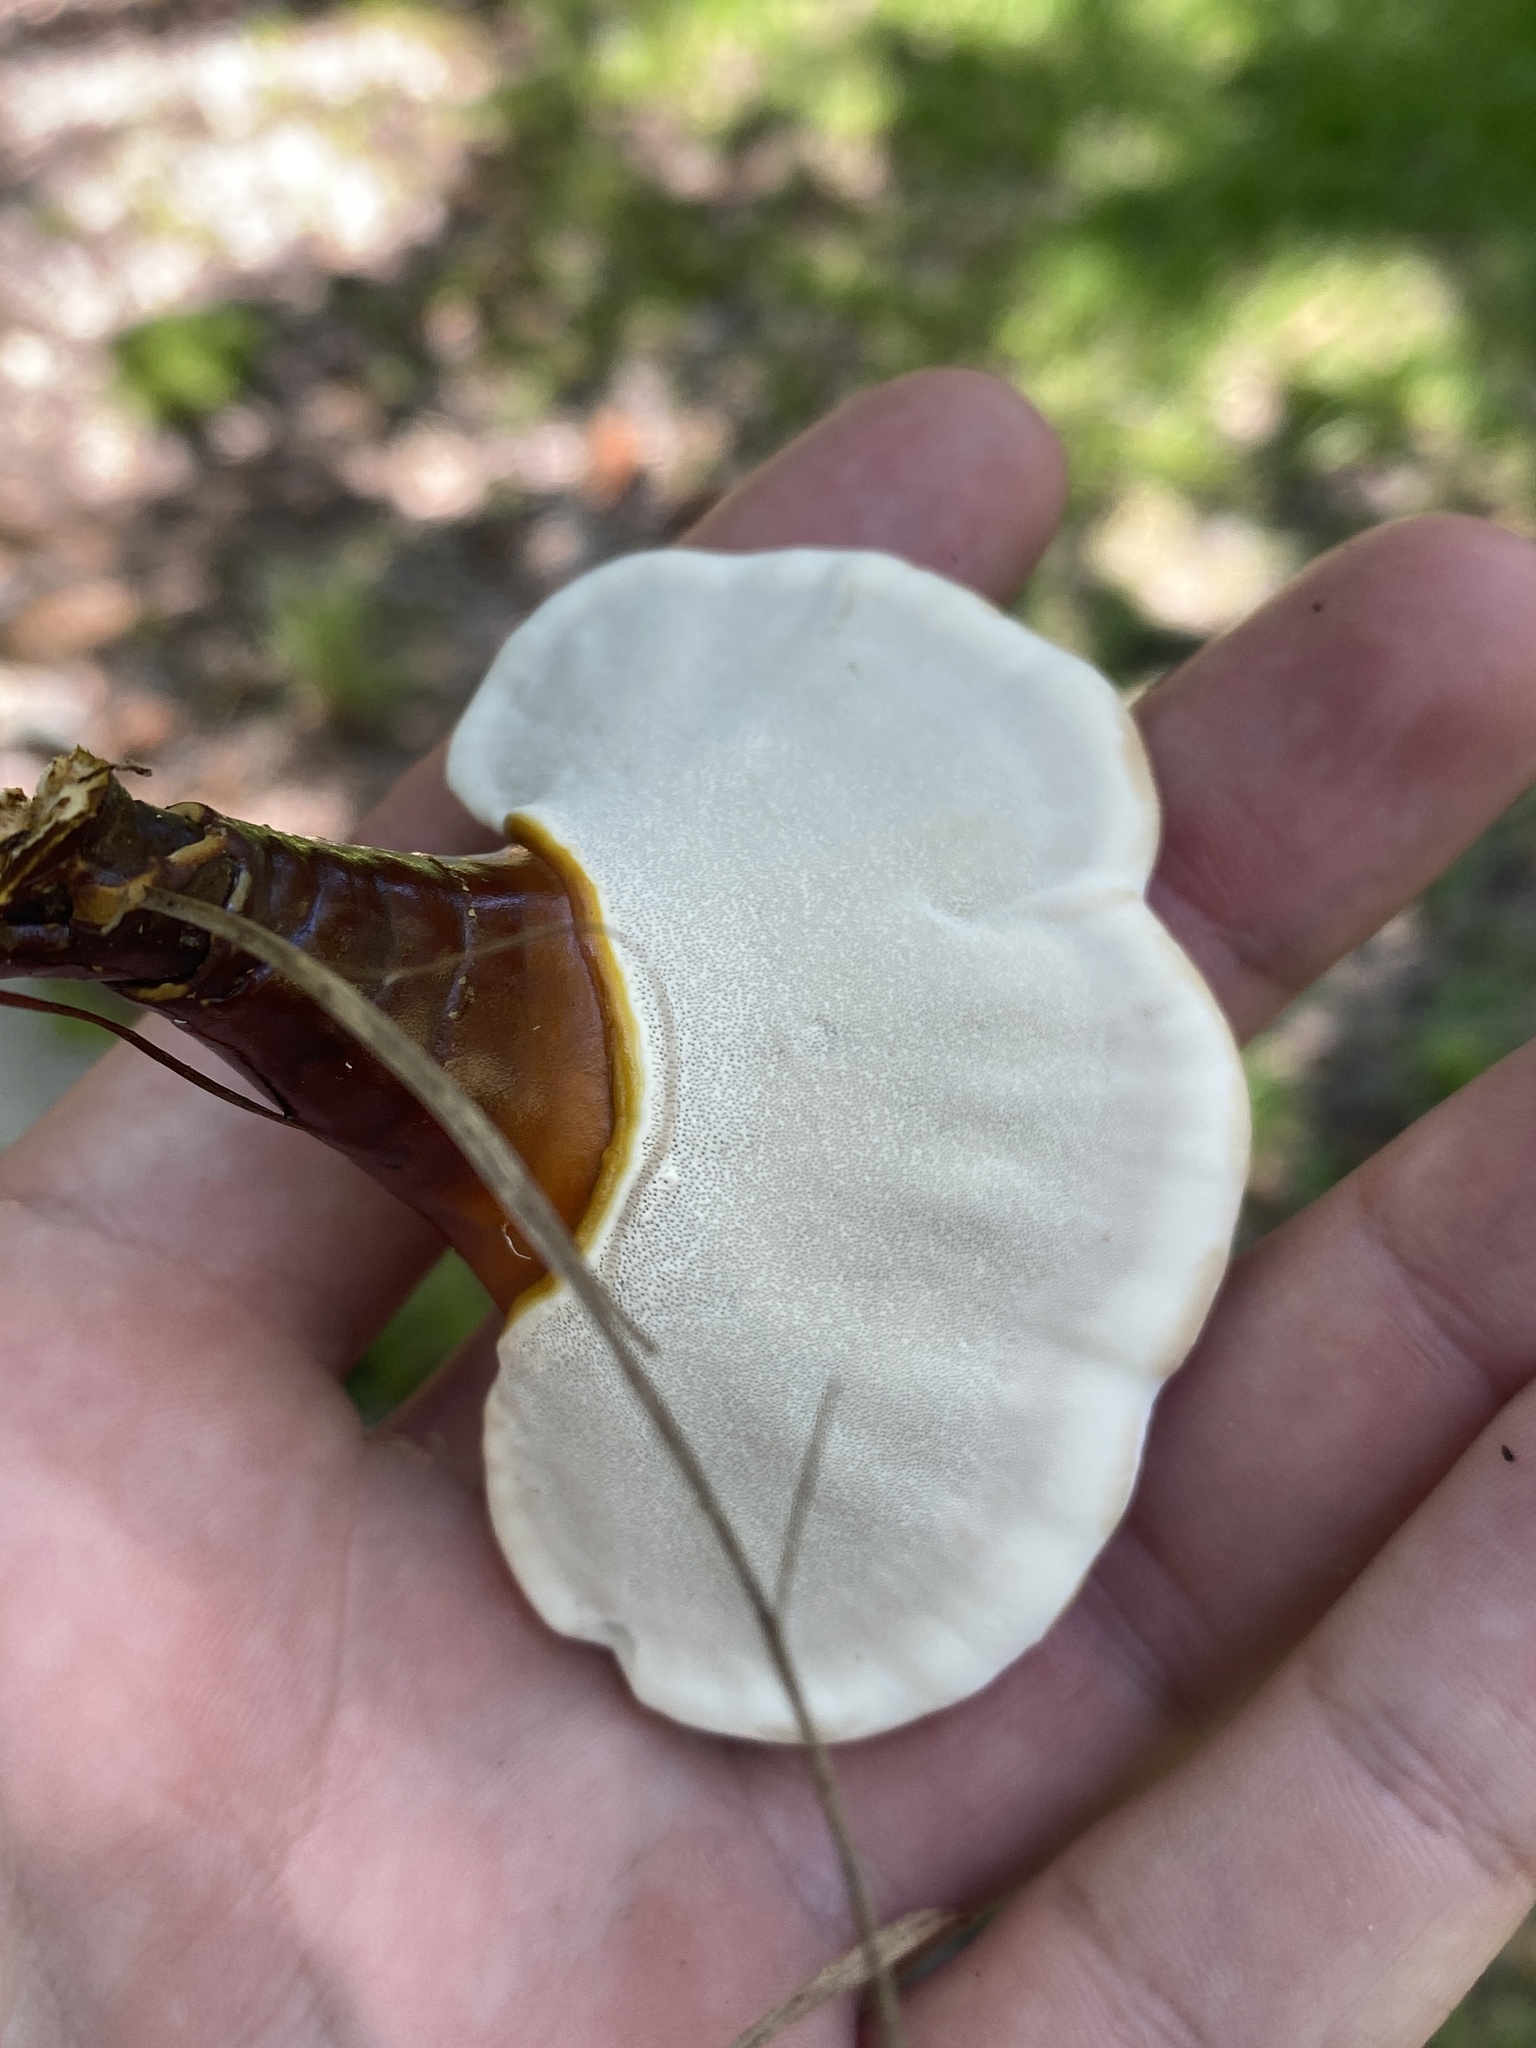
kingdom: Fungi
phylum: Basidiomycota
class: Agaricomycetes
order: Polyporales
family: Polyporaceae
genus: Ganoderma
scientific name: Ganoderma curtisii
